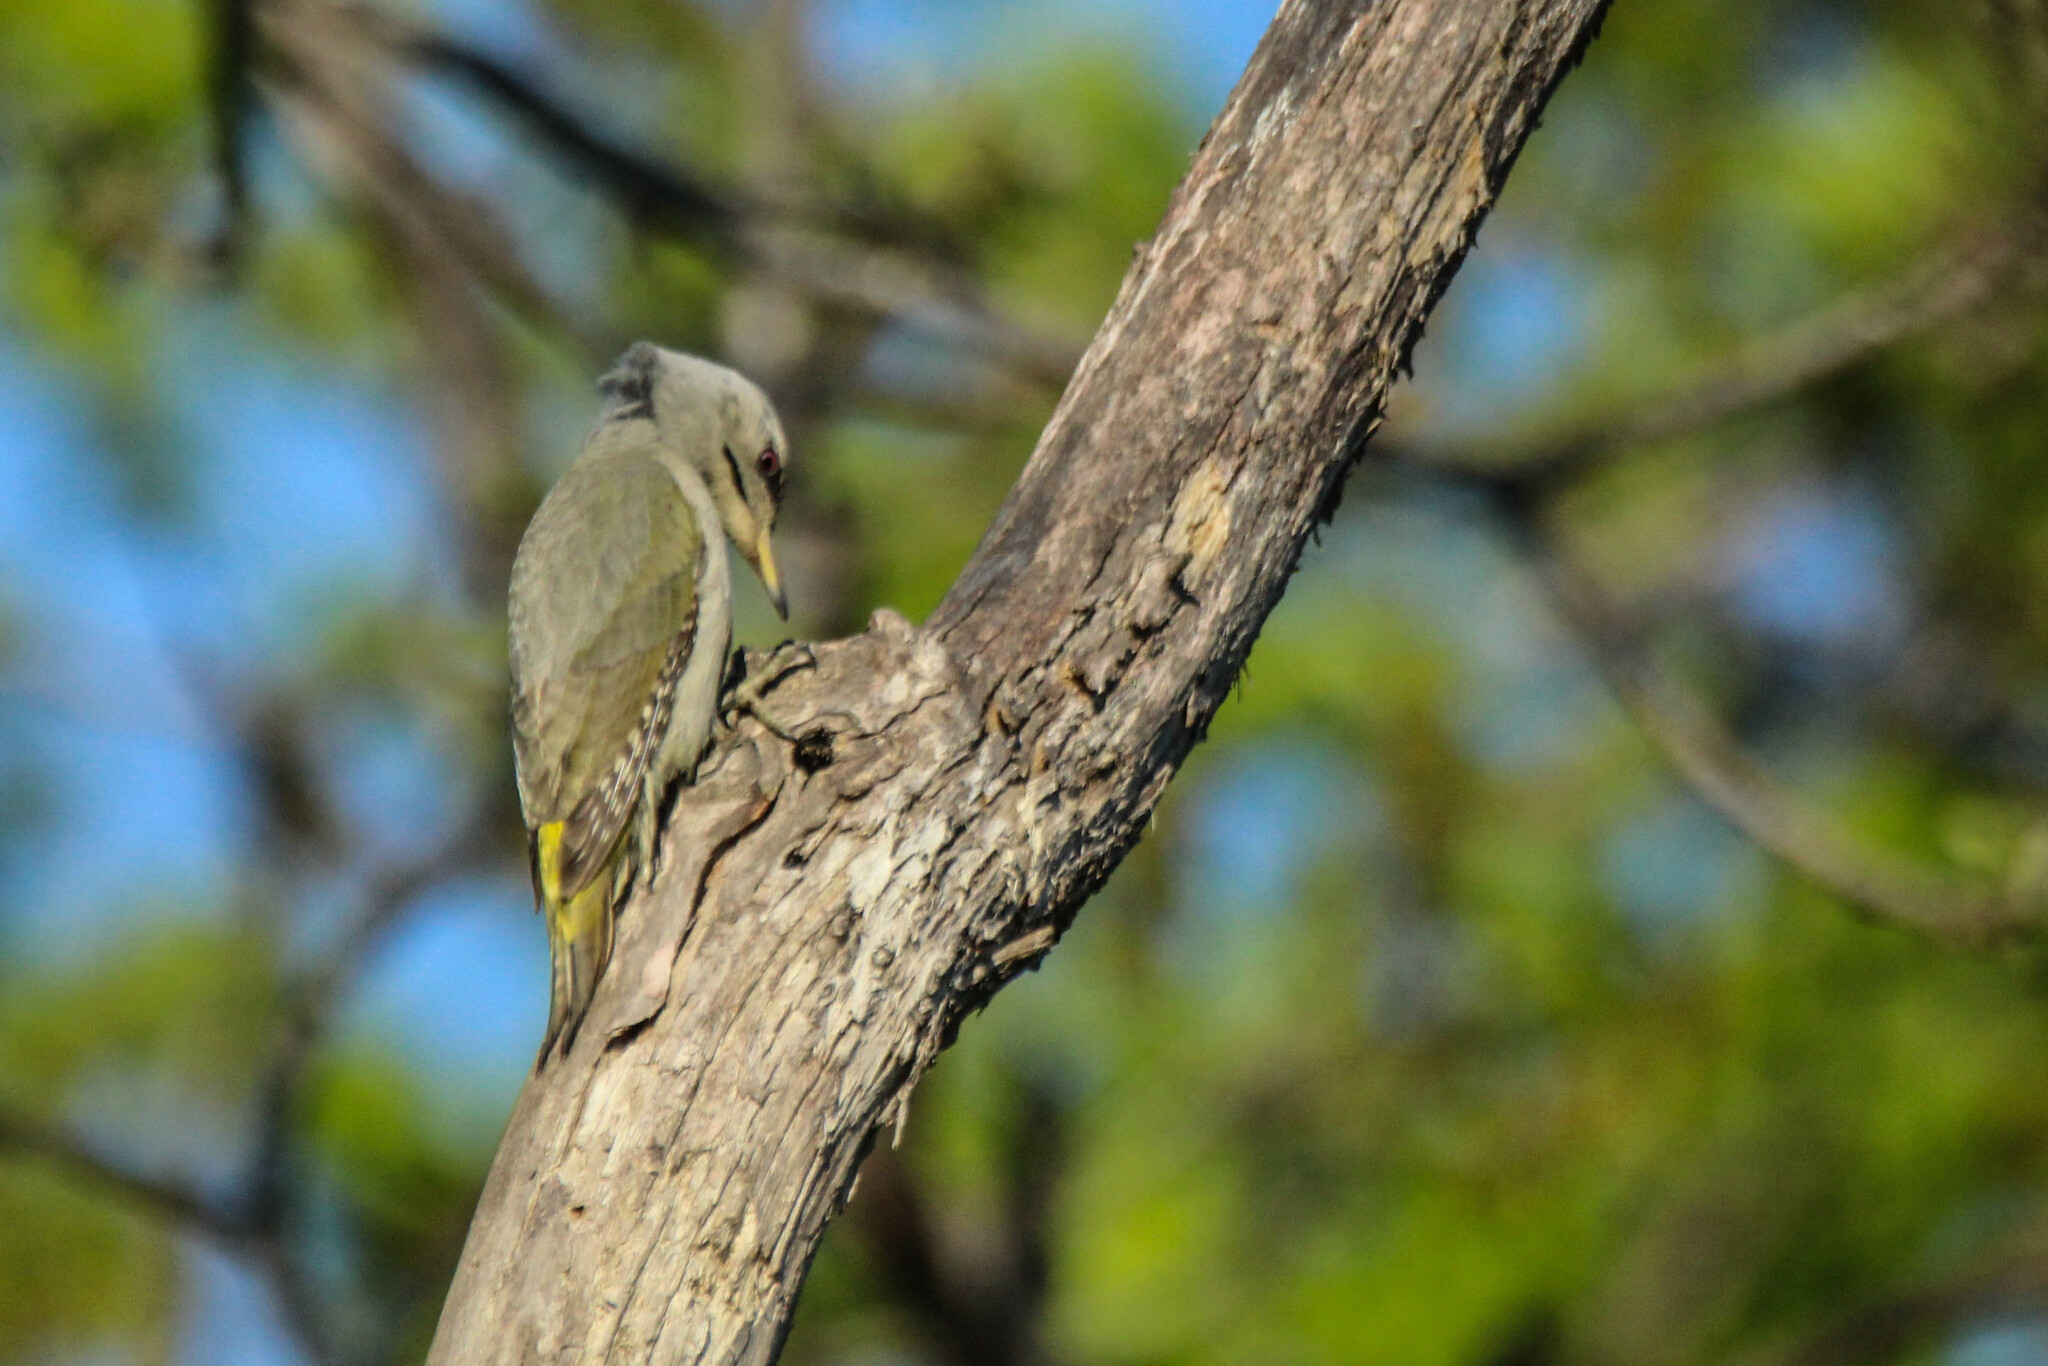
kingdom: Animalia
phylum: Chordata
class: Aves
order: Piciformes
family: Picidae
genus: Picus
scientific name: Picus canus
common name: Grey-headed woodpecker
